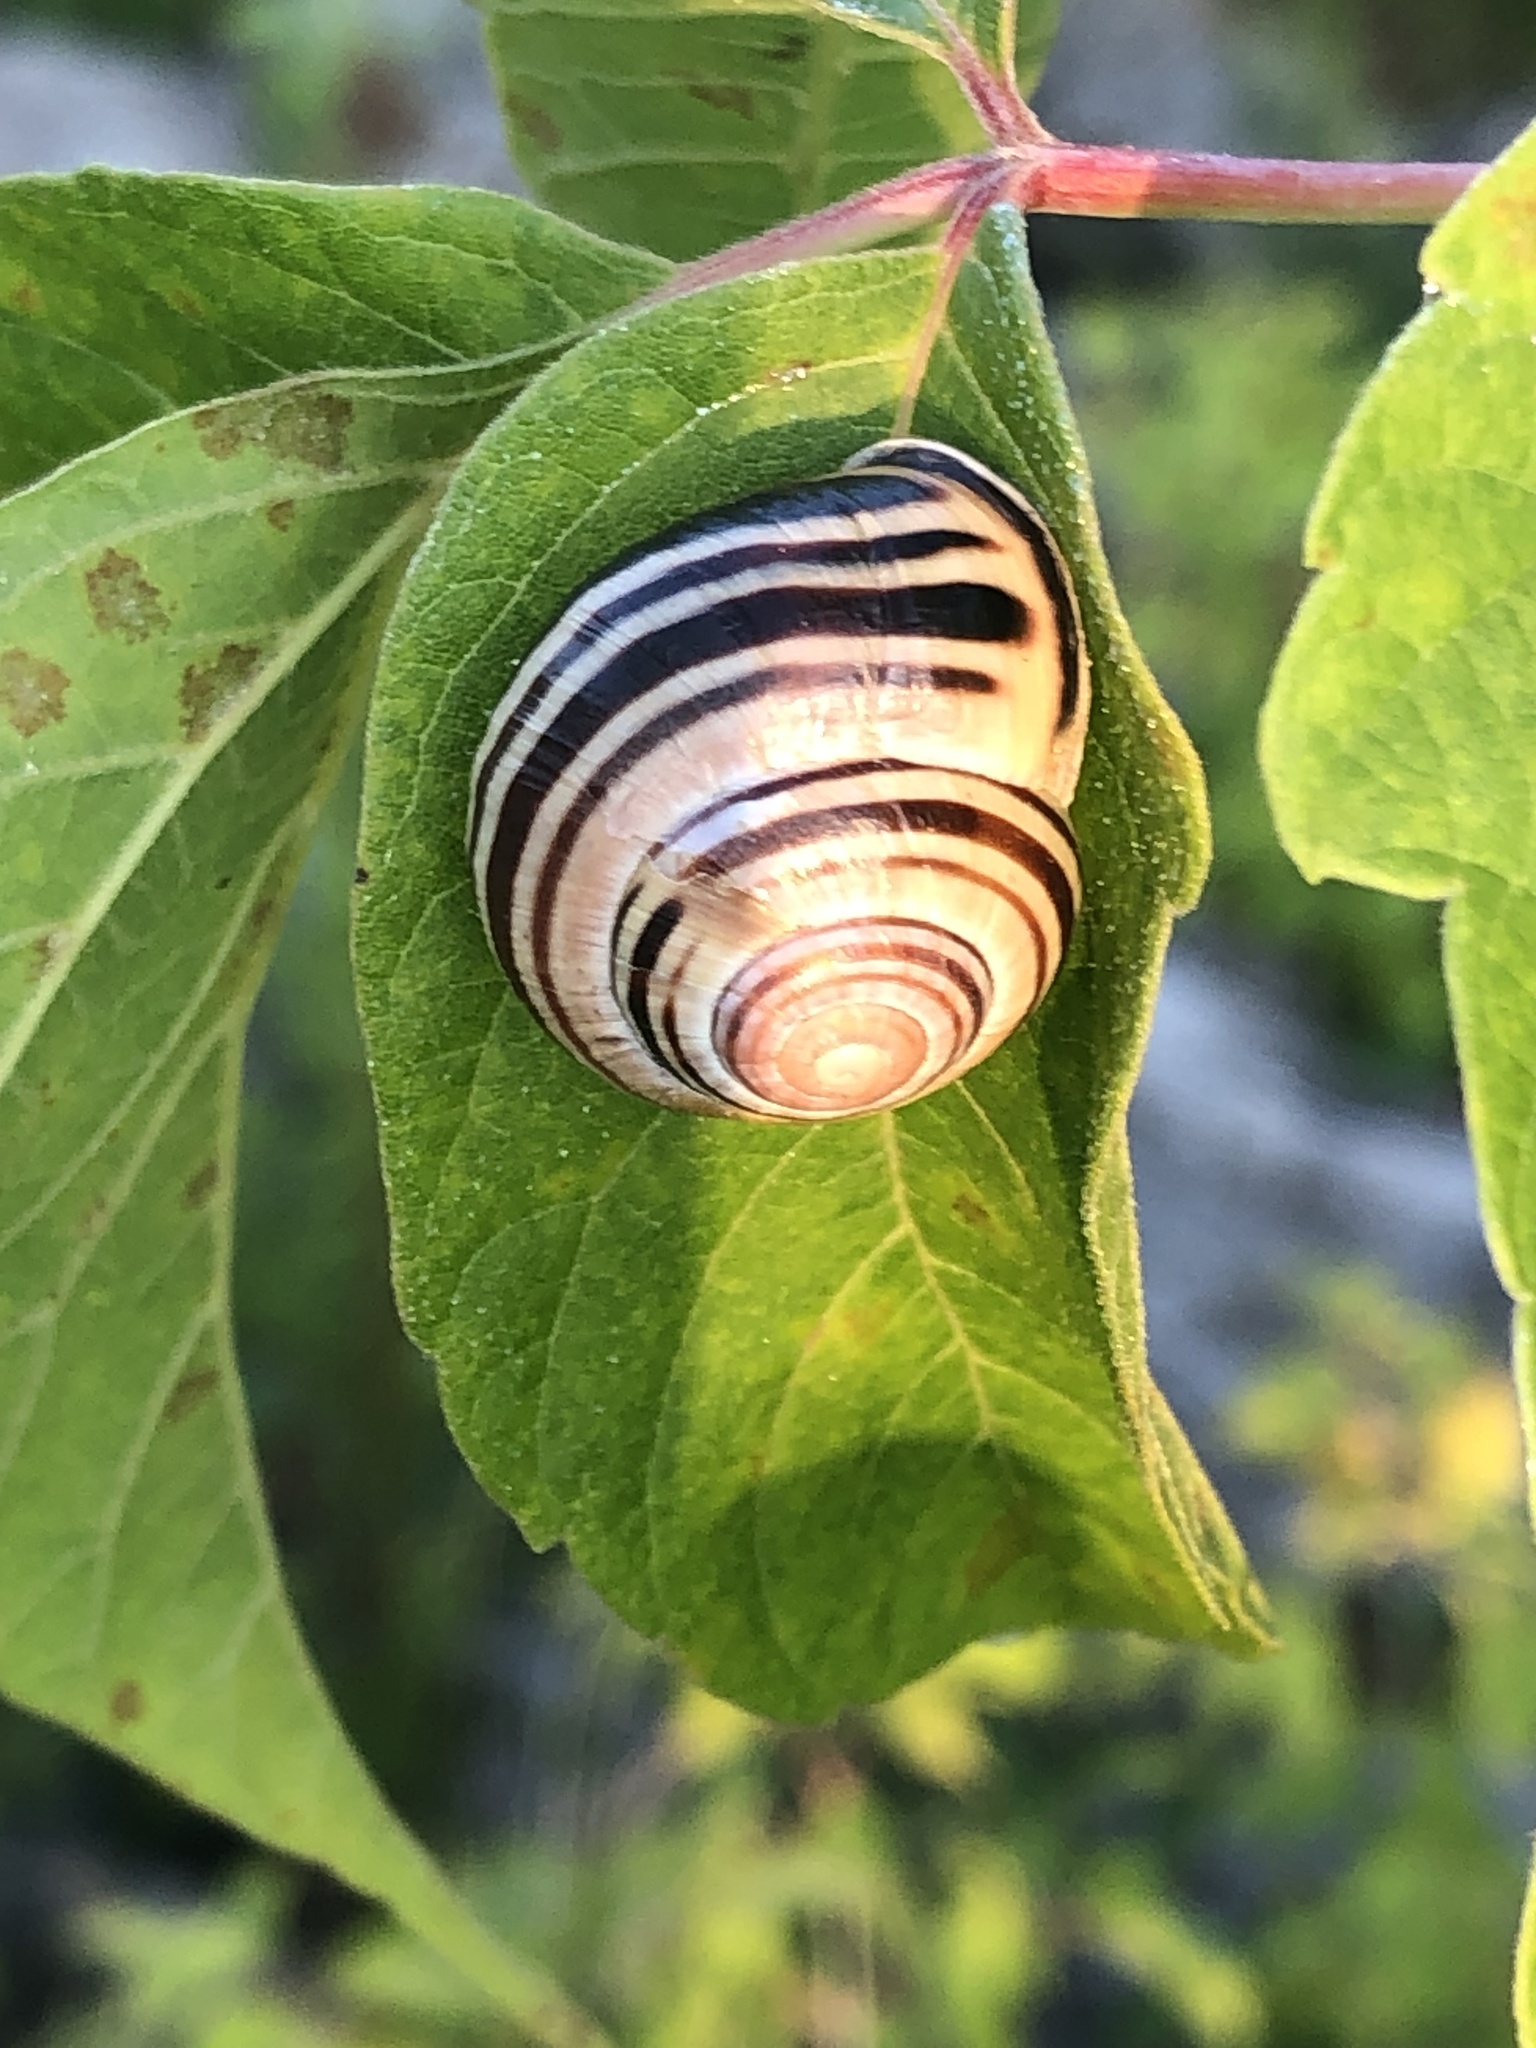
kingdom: Animalia
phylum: Mollusca
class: Gastropoda
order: Stylommatophora
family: Helicidae
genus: Cepaea
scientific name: Cepaea nemoralis
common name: Grovesnail
